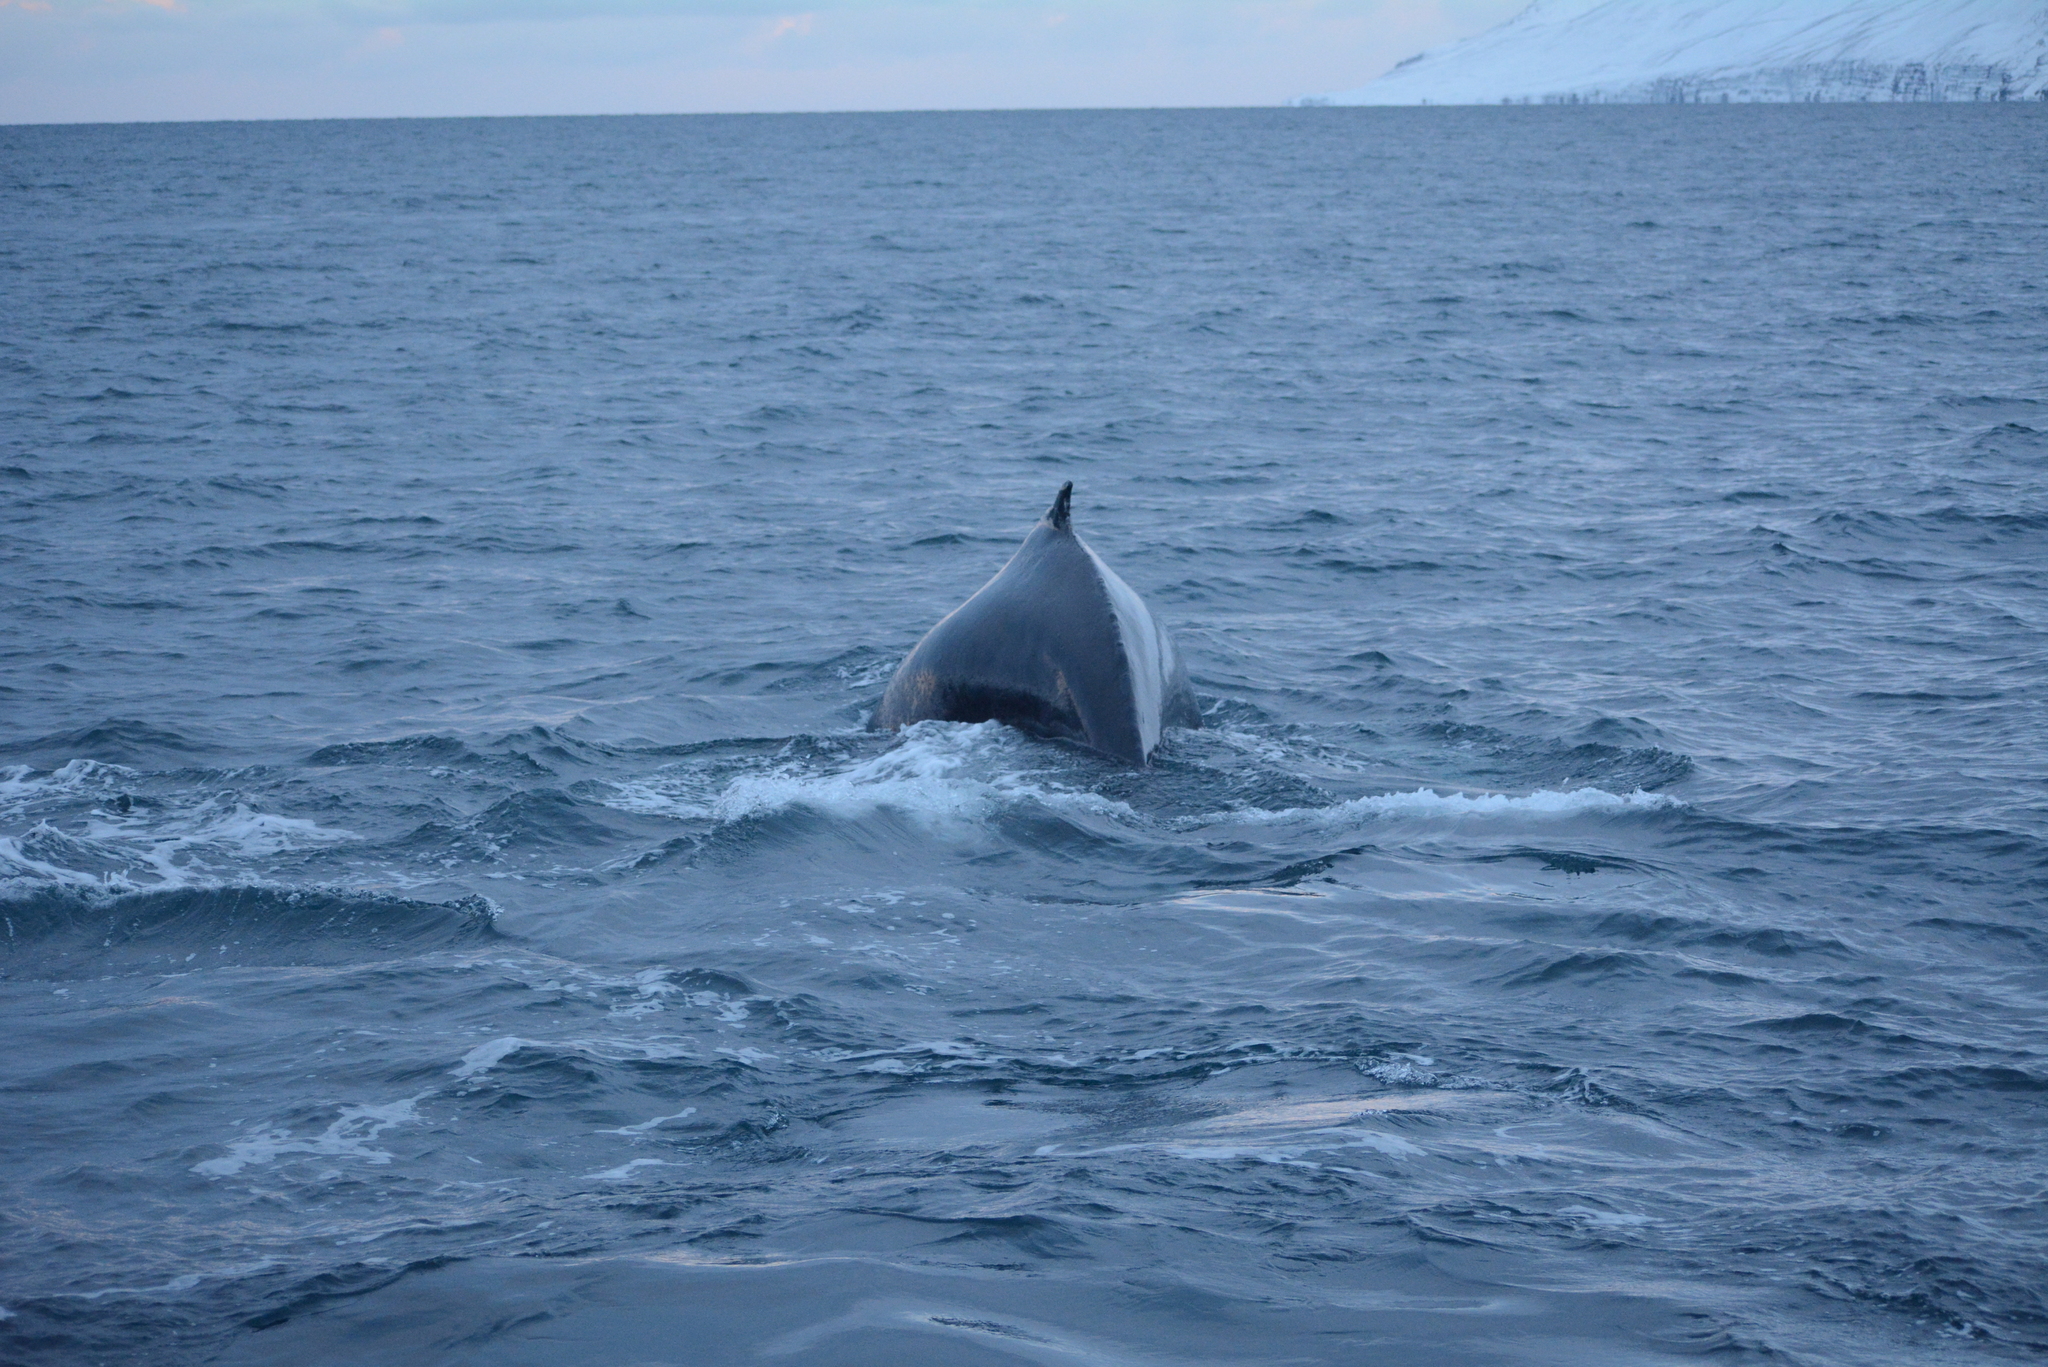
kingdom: Animalia
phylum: Chordata
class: Mammalia
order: Cetacea
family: Balaenopteridae
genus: Megaptera
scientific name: Megaptera novaeangliae
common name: Humpback whale
